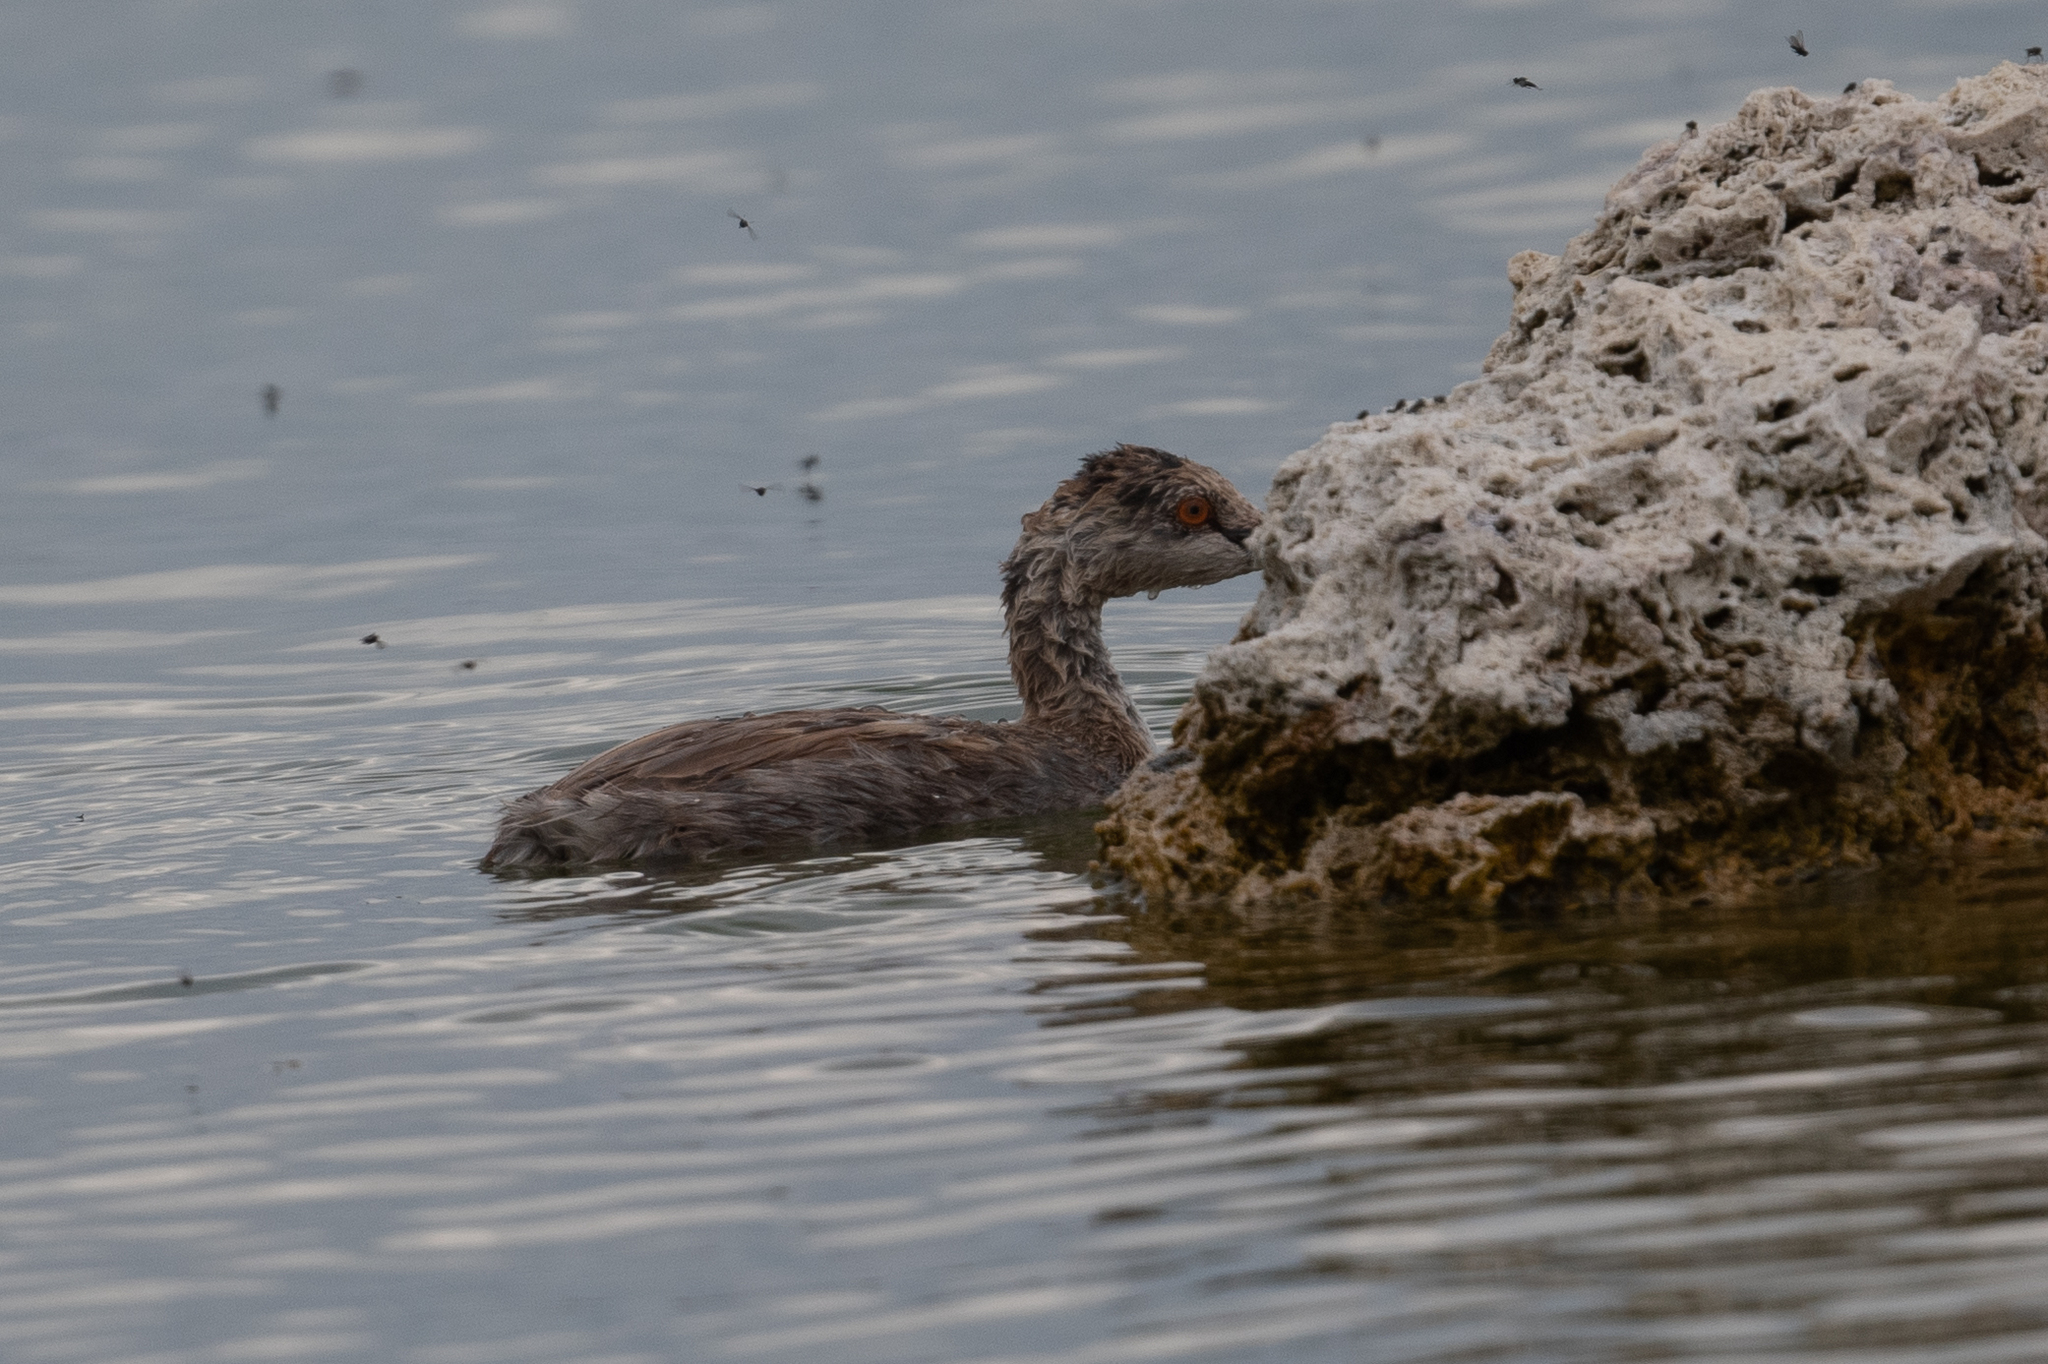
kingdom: Animalia
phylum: Chordata
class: Aves
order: Podicipediformes
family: Podicipedidae
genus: Podiceps
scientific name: Podiceps nigricollis
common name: Black-necked grebe
